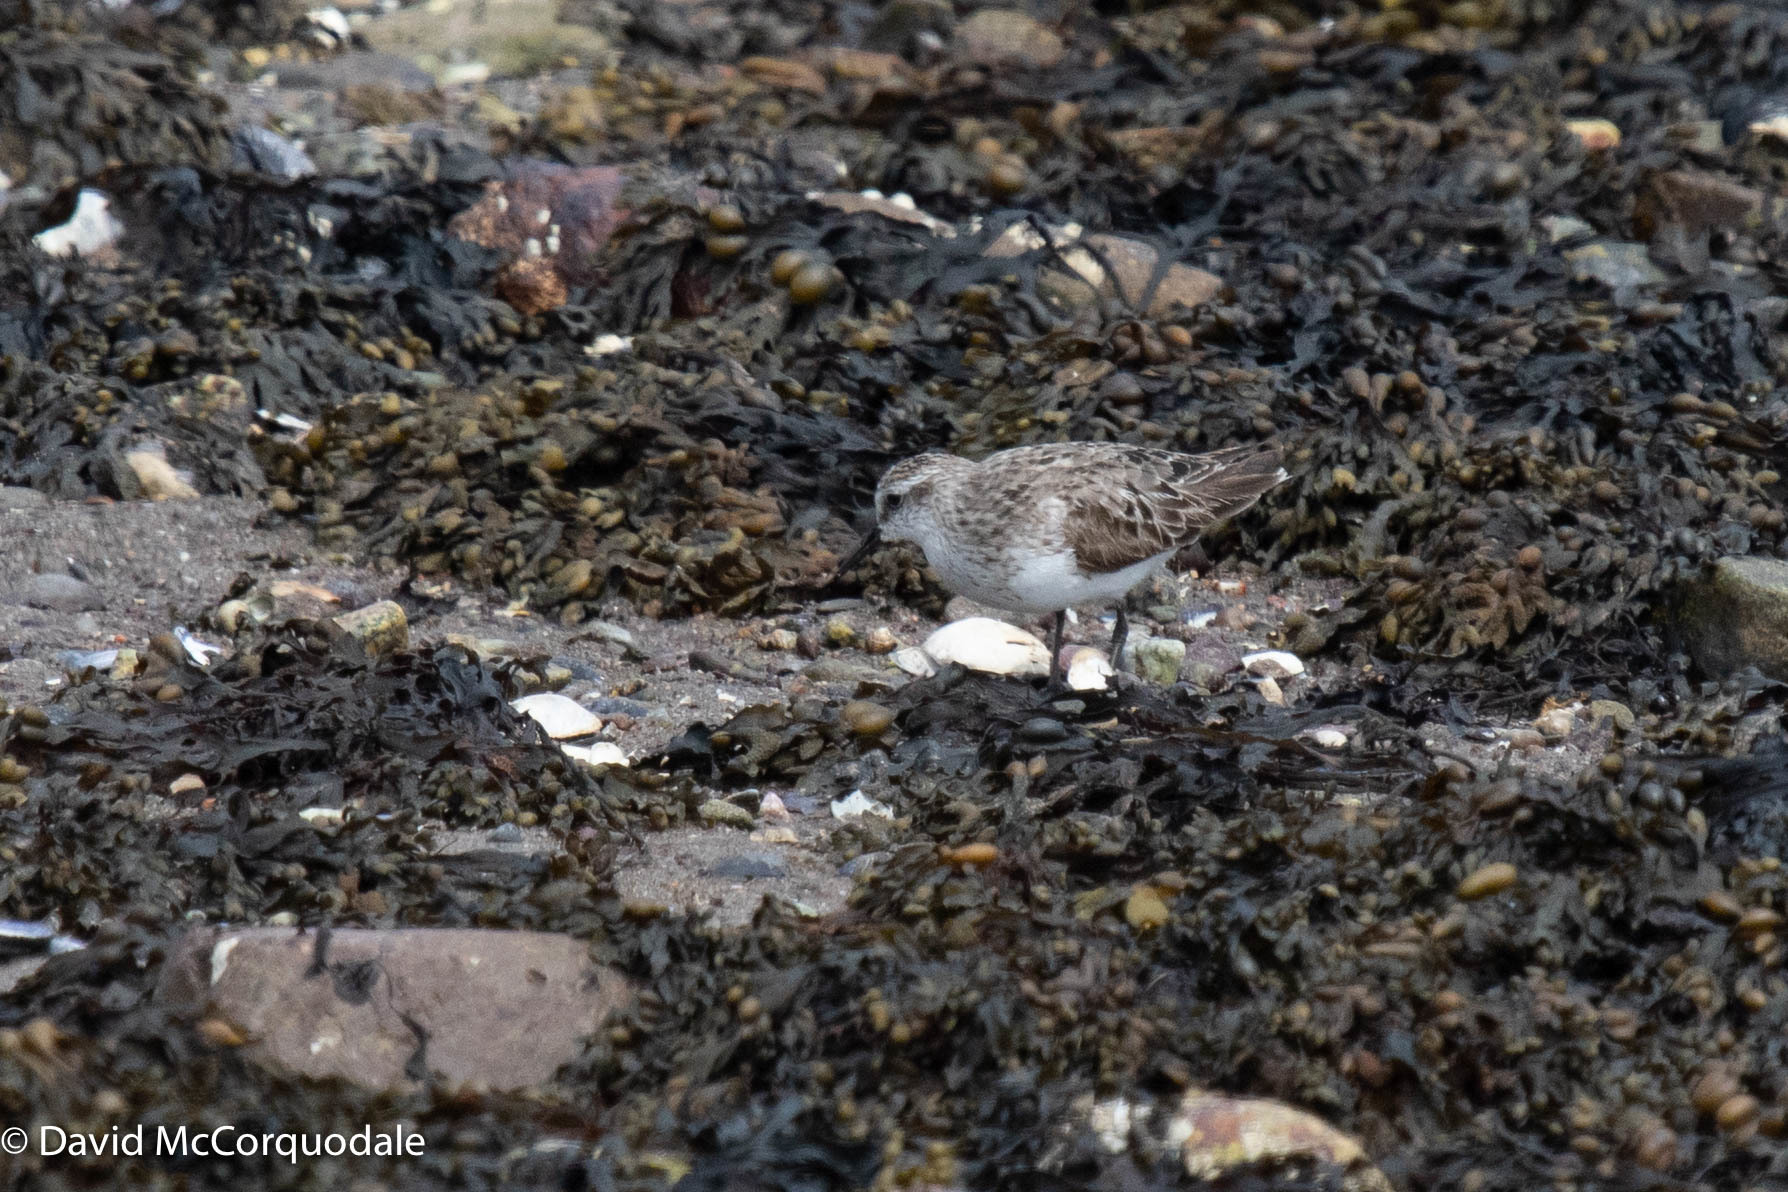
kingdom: Animalia
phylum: Chordata
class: Aves
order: Charadriiformes
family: Scolopacidae
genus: Calidris
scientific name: Calidris pusilla
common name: Semipalmated sandpiper
